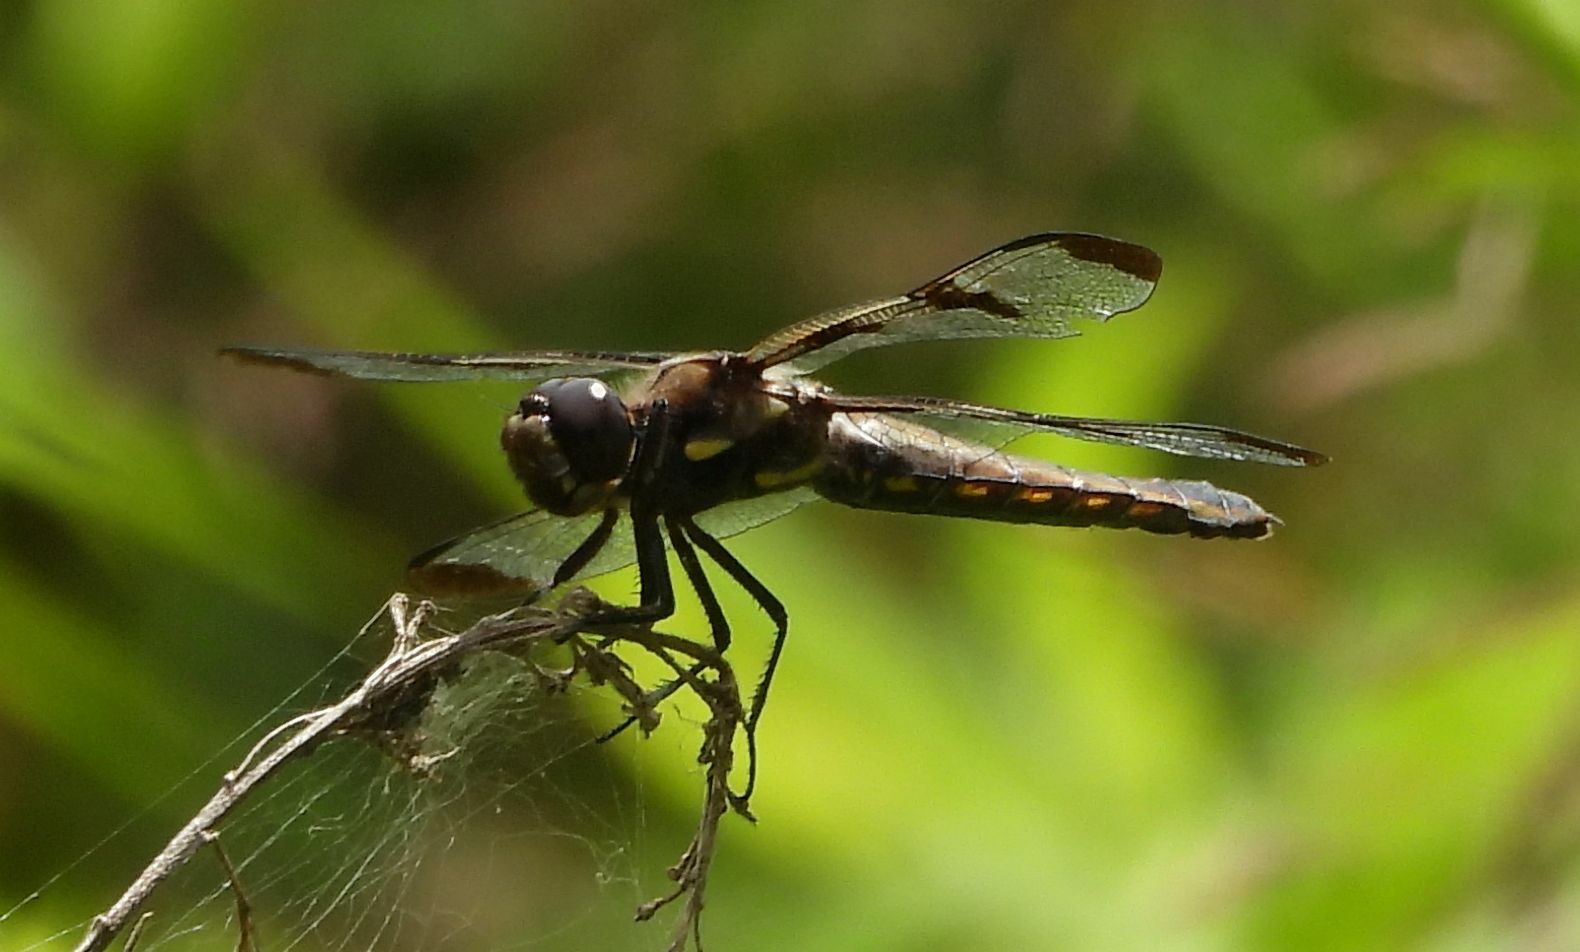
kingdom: Animalia
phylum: Arthropoda
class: Insecta
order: Odonata
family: Libellulidae
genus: Libellula
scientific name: Libellula pulchella
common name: Twelve-spotted skimmer
